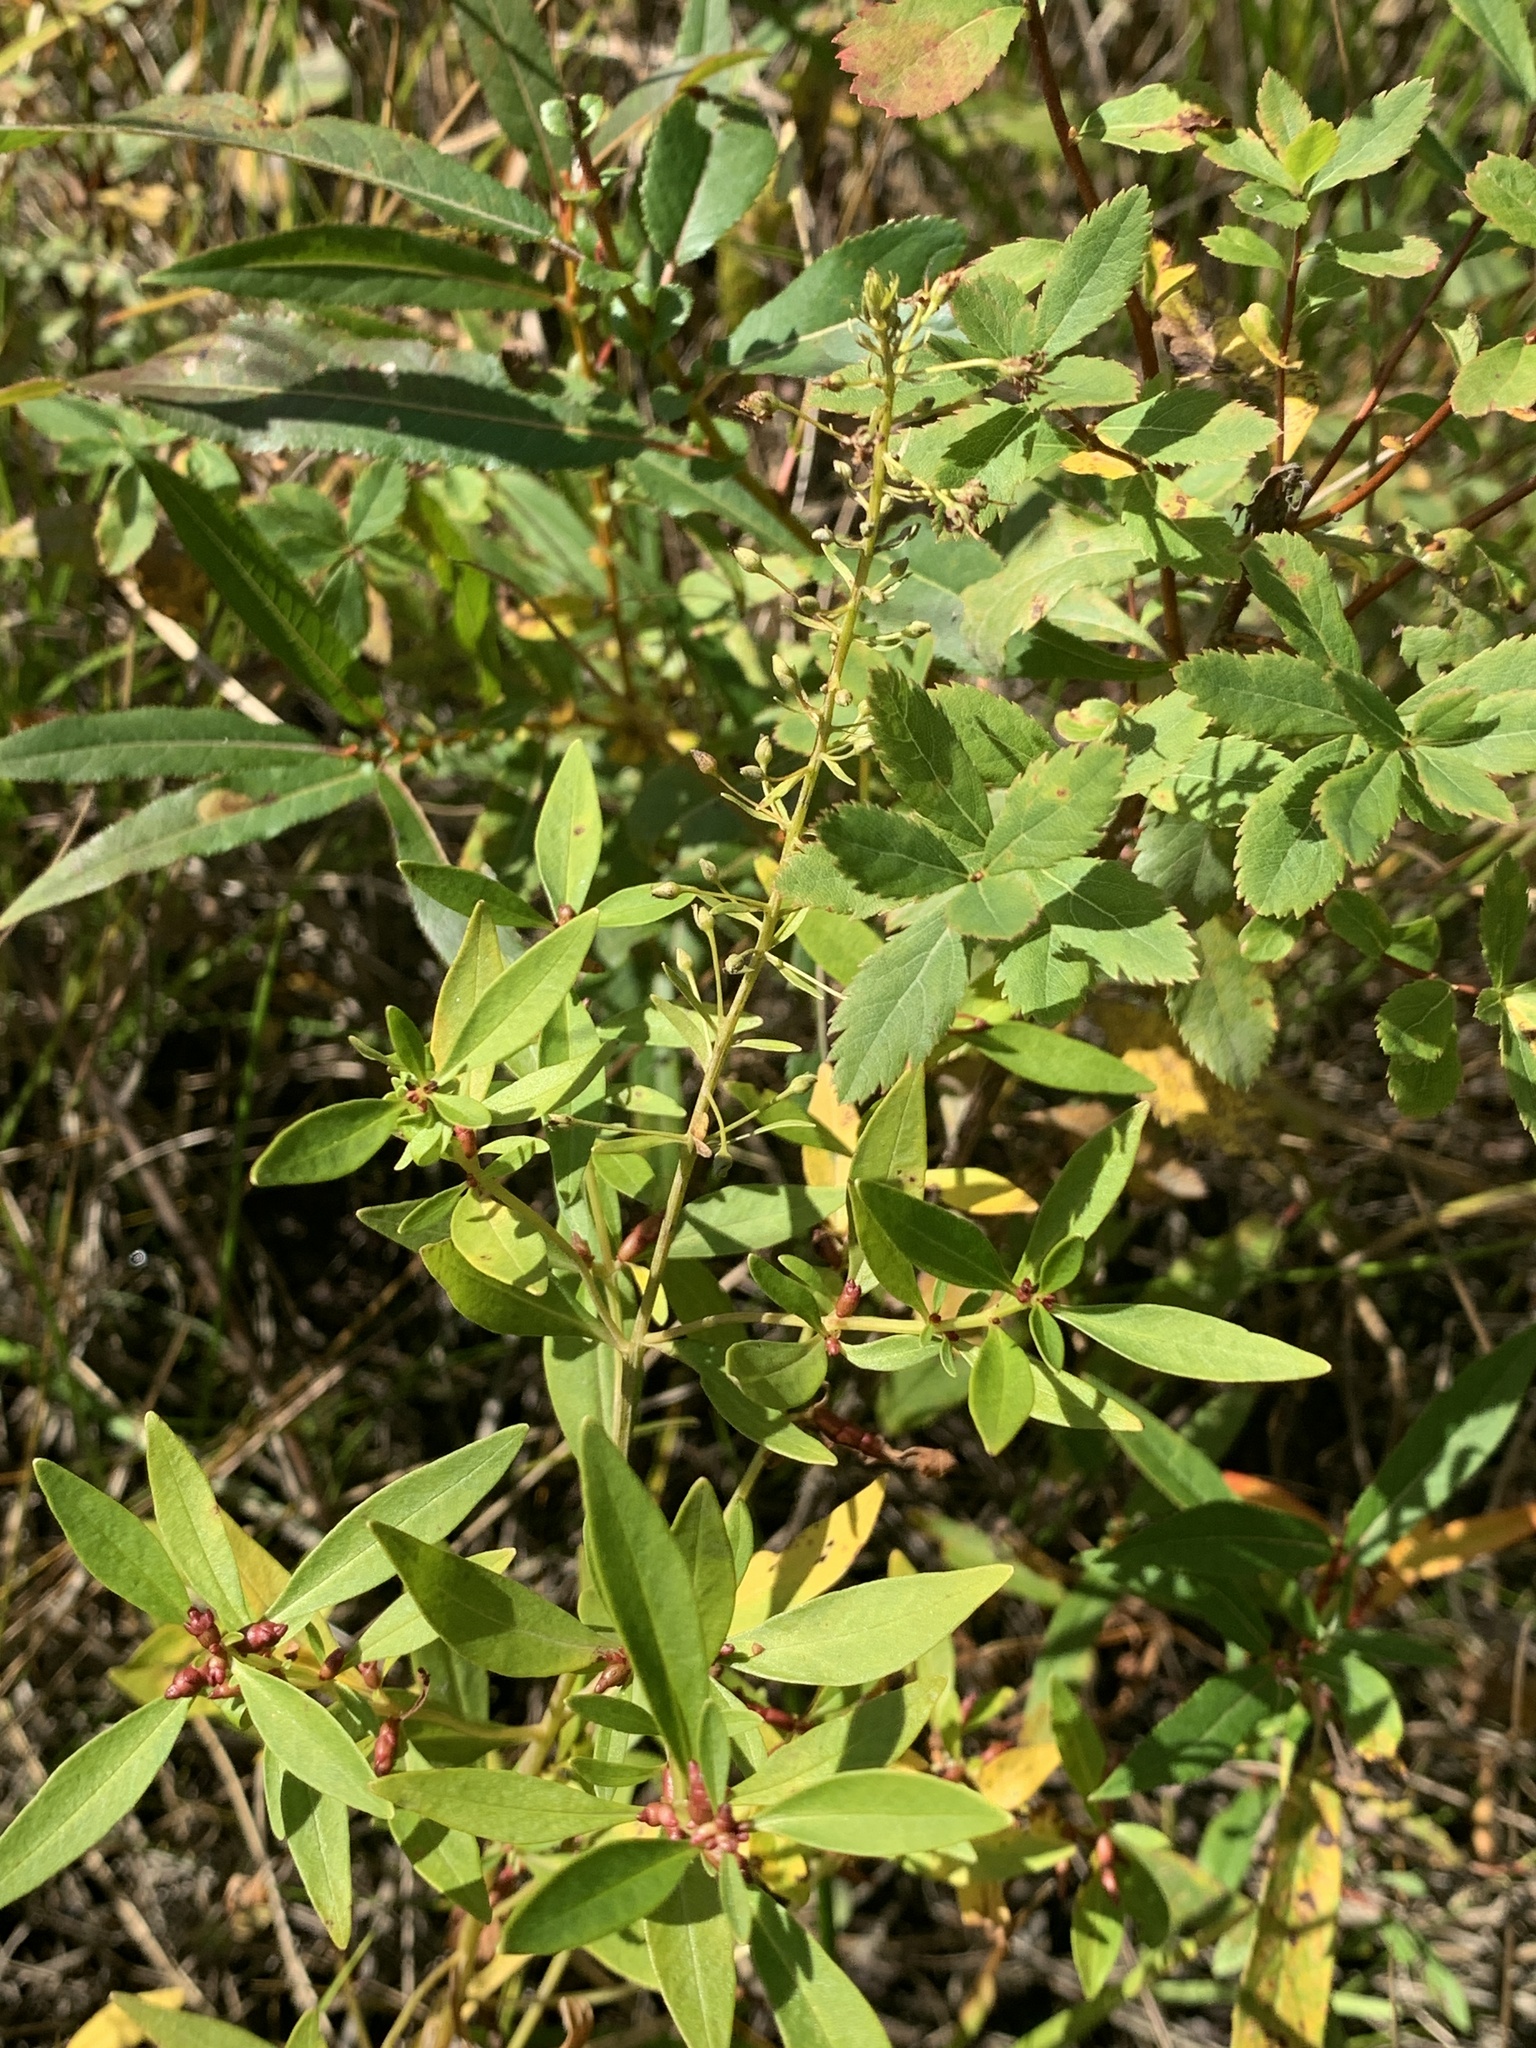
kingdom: Plantae
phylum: Tracheophyta
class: Magnoliopsida
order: Ericales
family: Primulaceae
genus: Lysimachia
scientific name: Lysimachia terrestris
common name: Lake loosestrife
